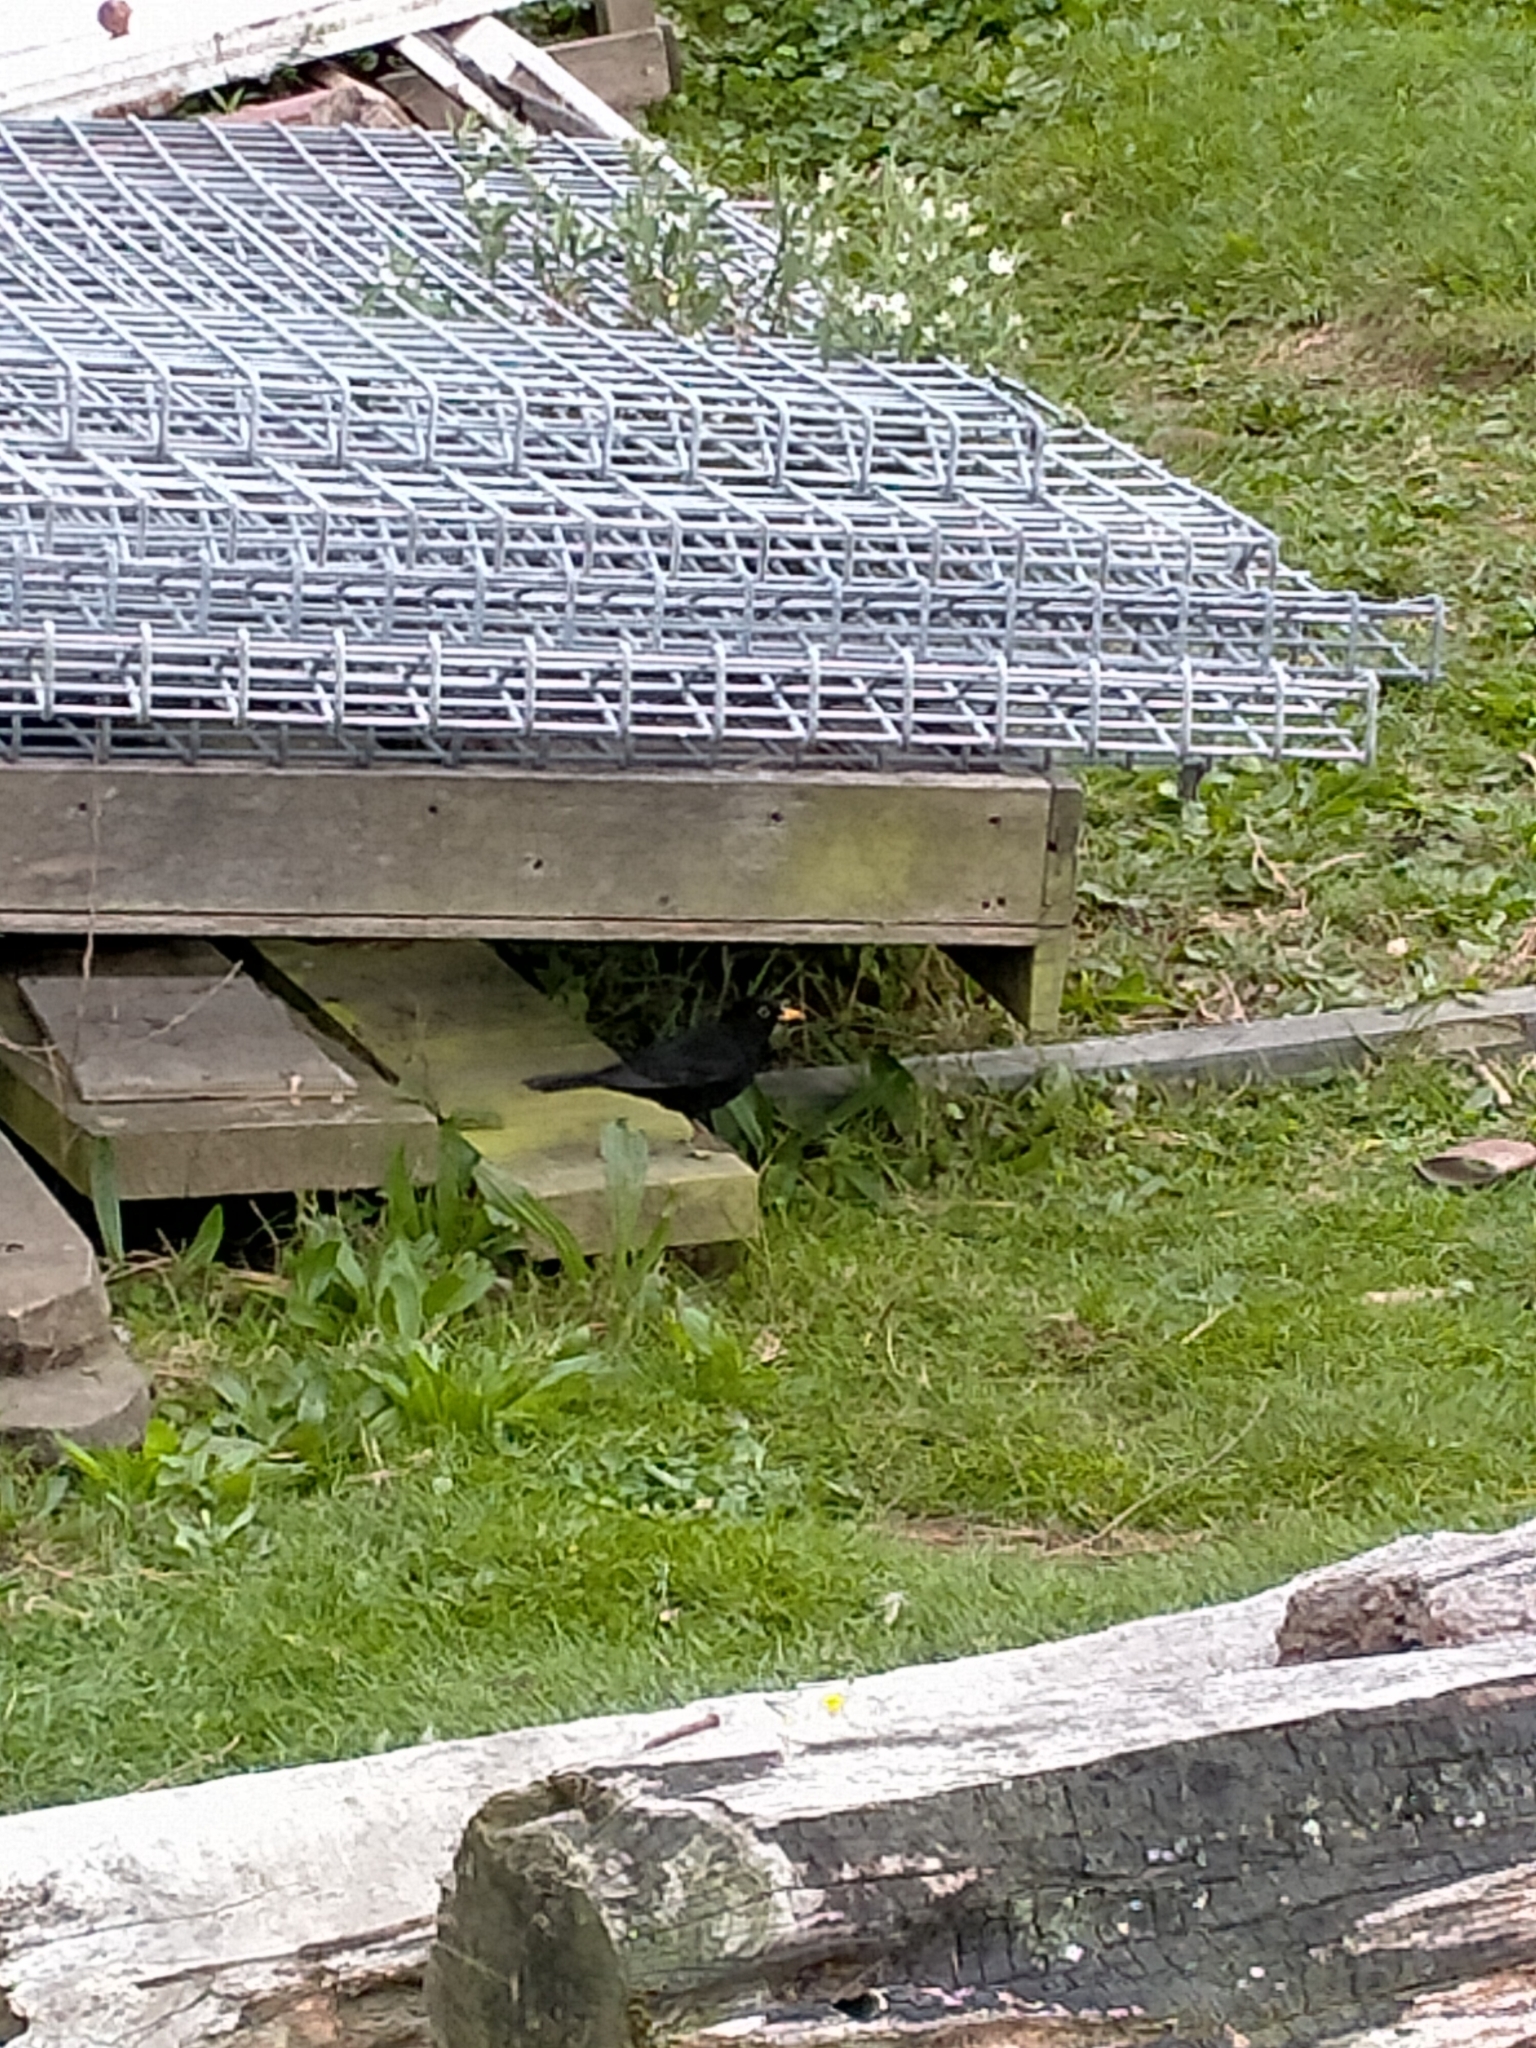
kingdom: Animalia
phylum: Chordata
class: Aves
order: Passeriformes
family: Turdidae
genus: Turdus
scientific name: Turdus merula
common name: Common blackbird
